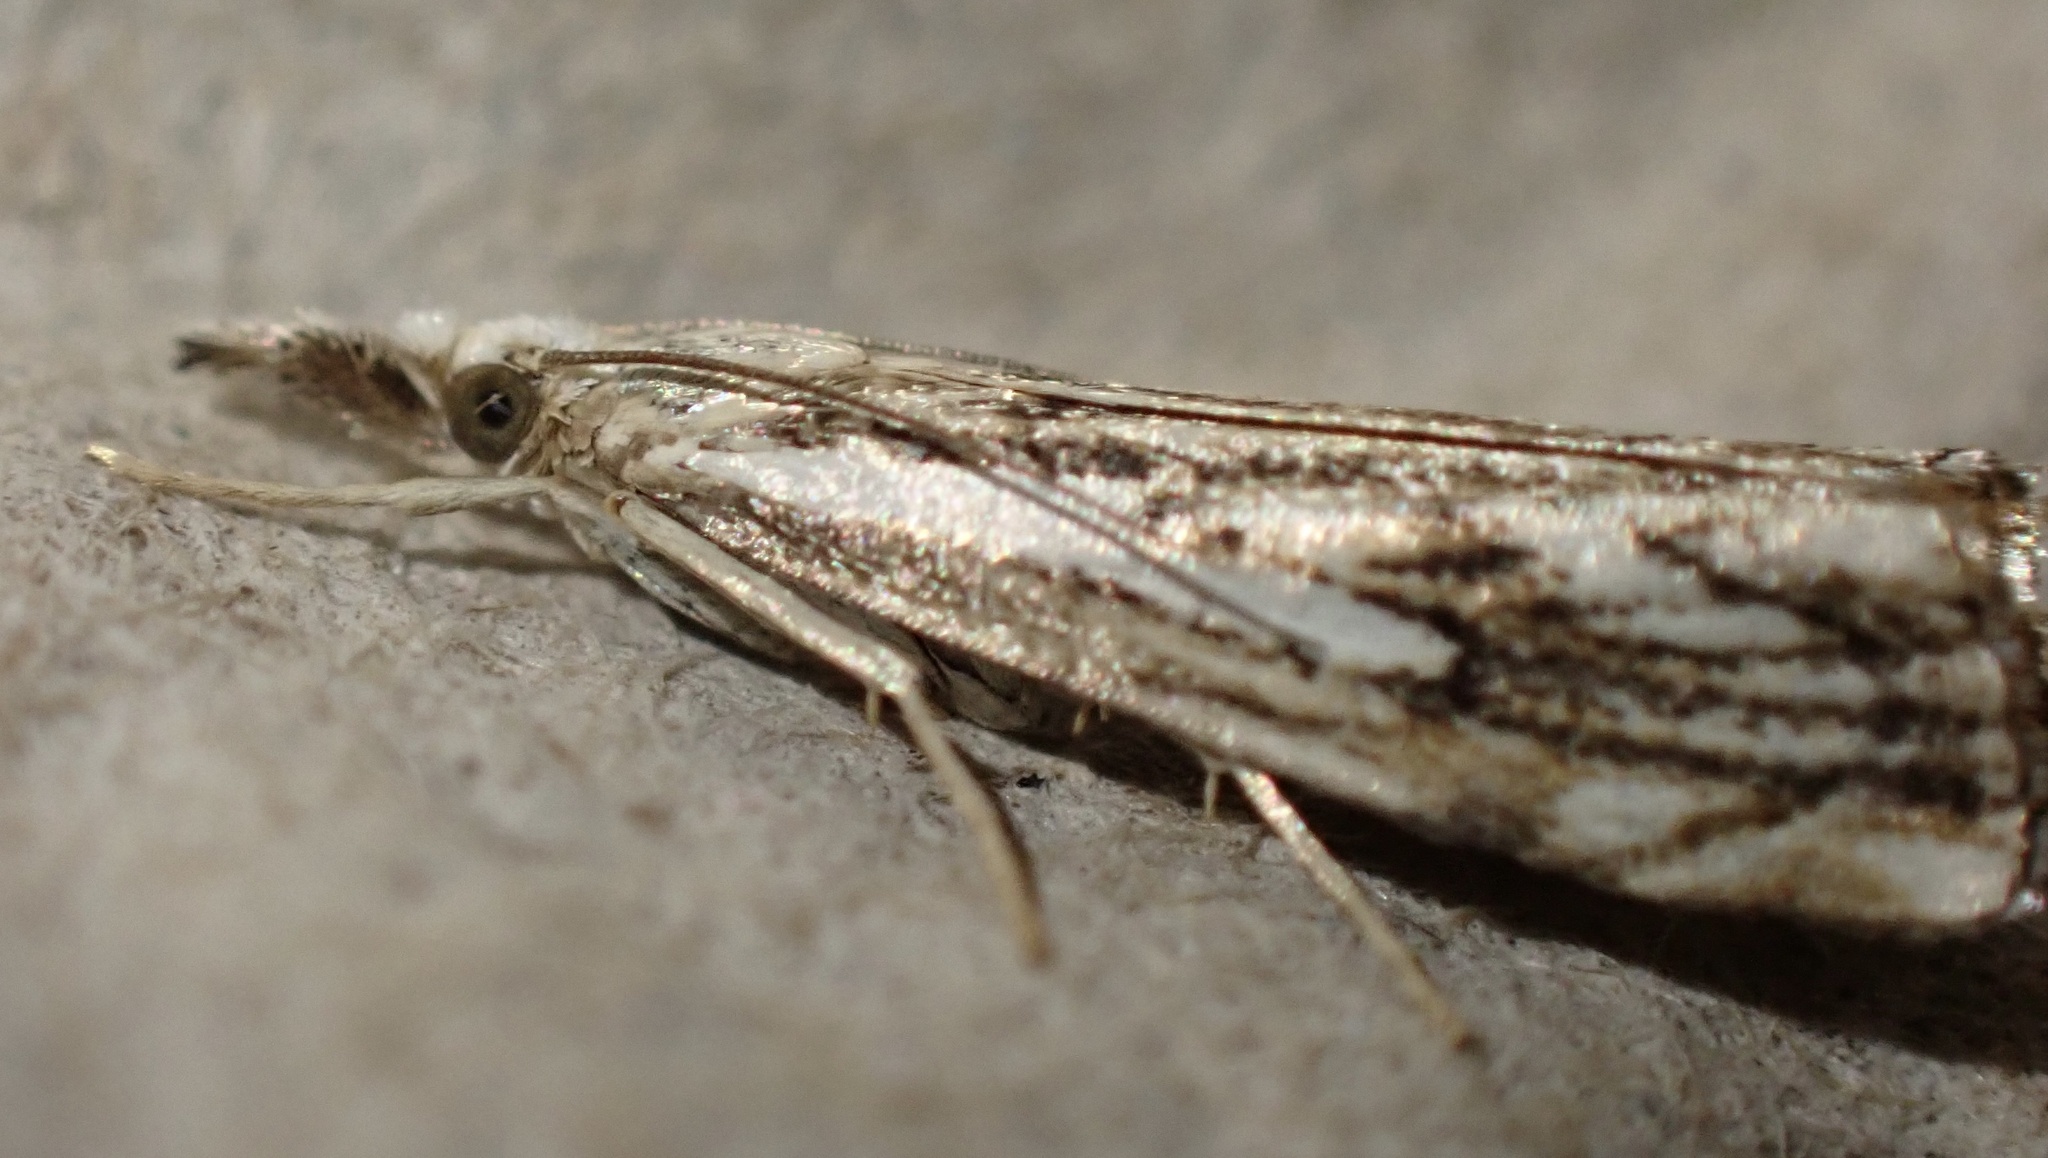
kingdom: Animalia
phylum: Arthropoda
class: Insecta
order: Lepidoptera
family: Crambidae
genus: Catoptria
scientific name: Catoptria falsella
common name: Chequered grass-veneer
